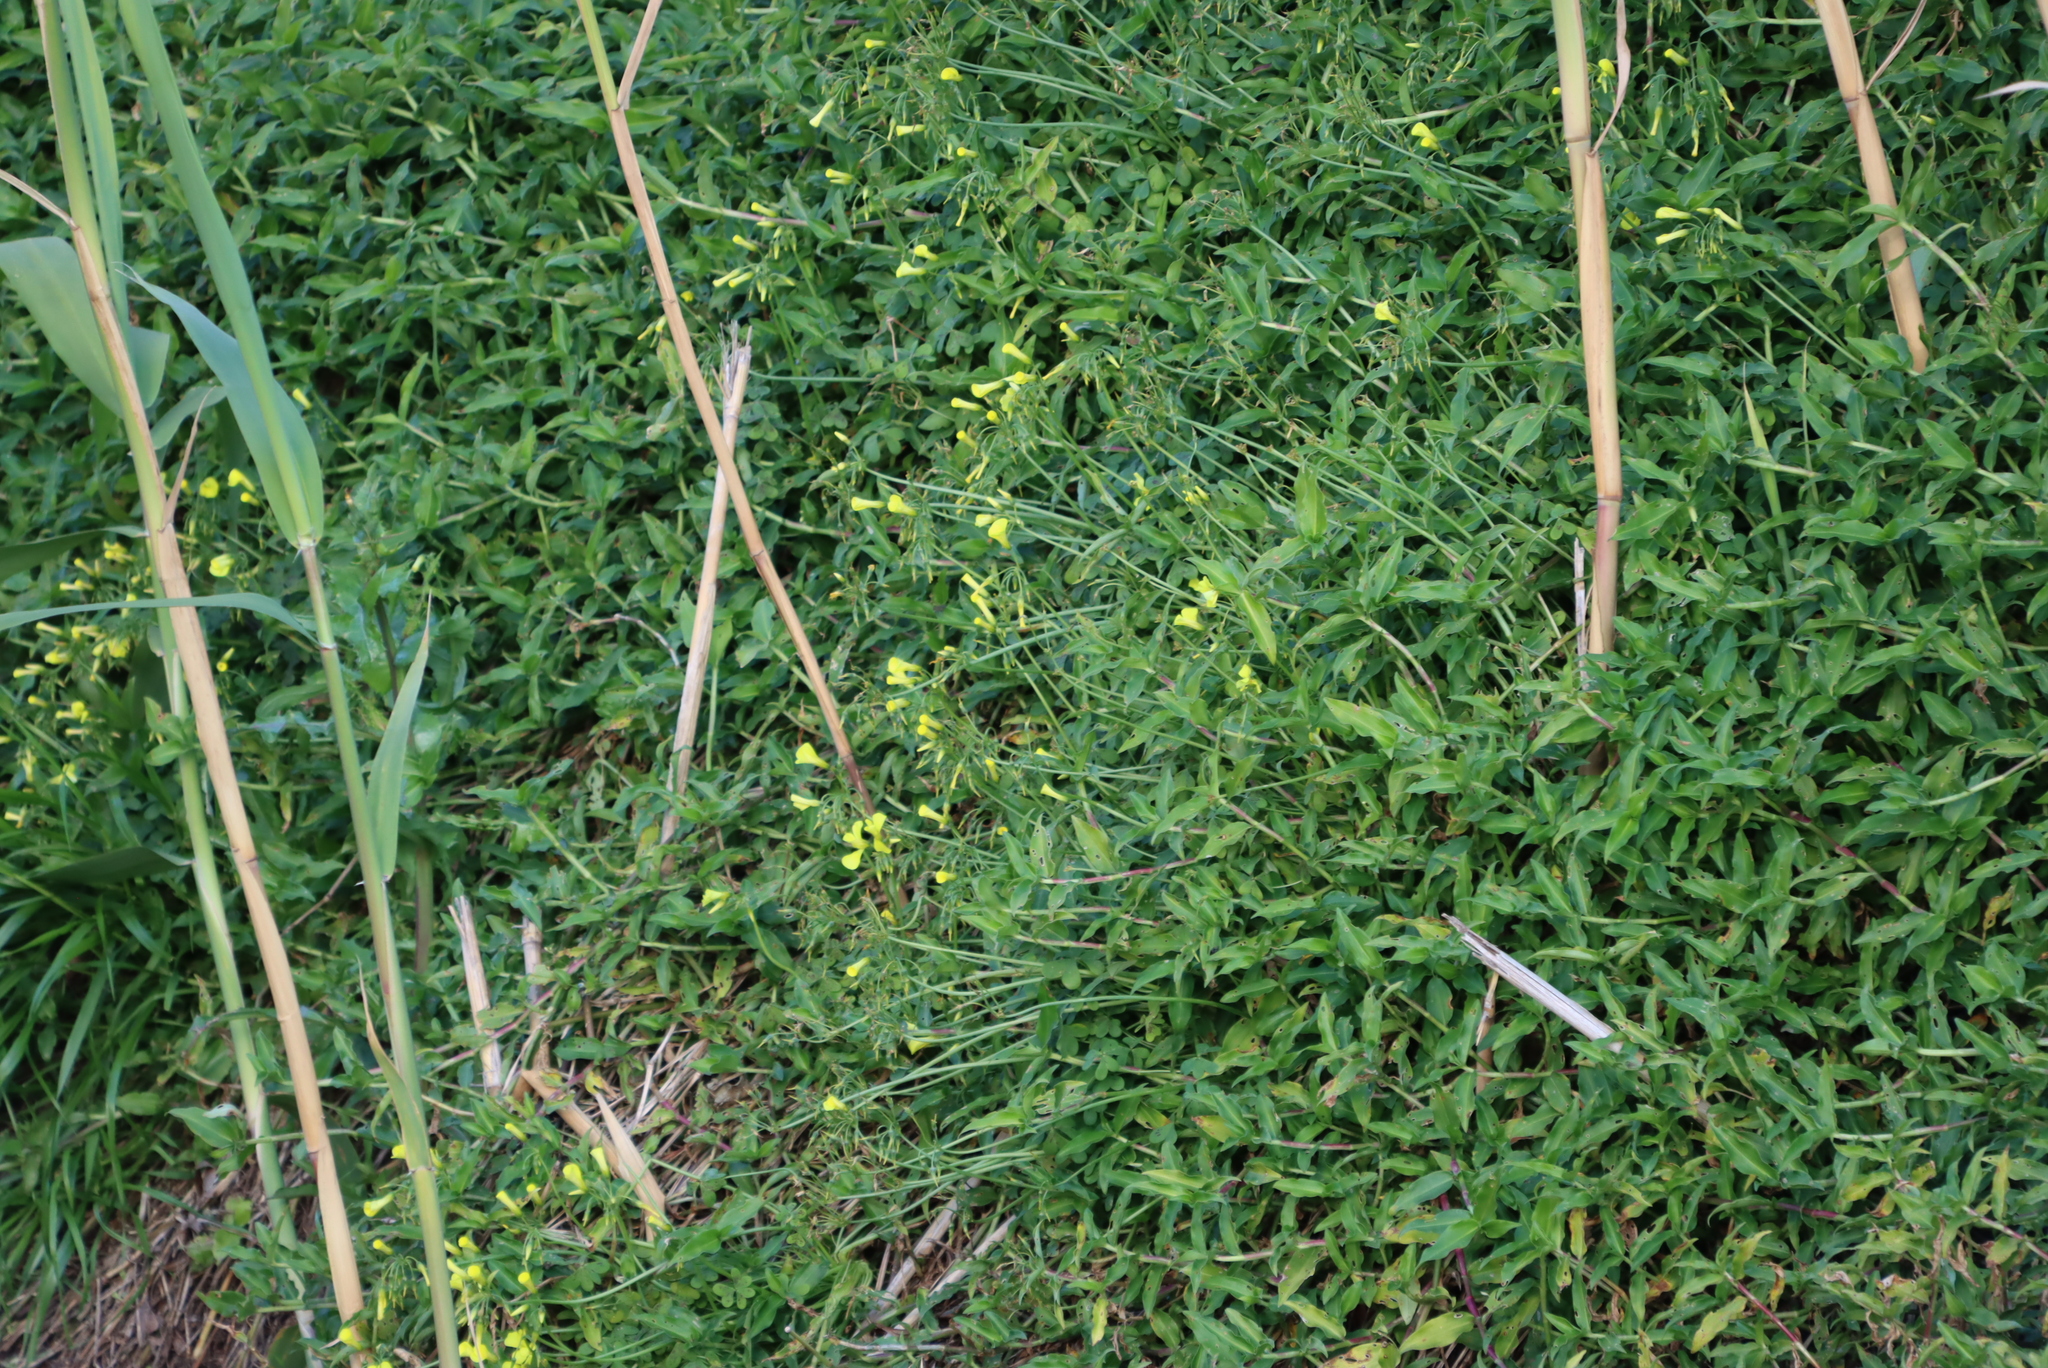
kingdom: Plantae
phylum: Tracheophyta
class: Magnoliopsida
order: Oxalidales
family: Oxalidaceae
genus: Oxalis
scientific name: Oxalis pes-caprae
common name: Bermuda-buttercup
